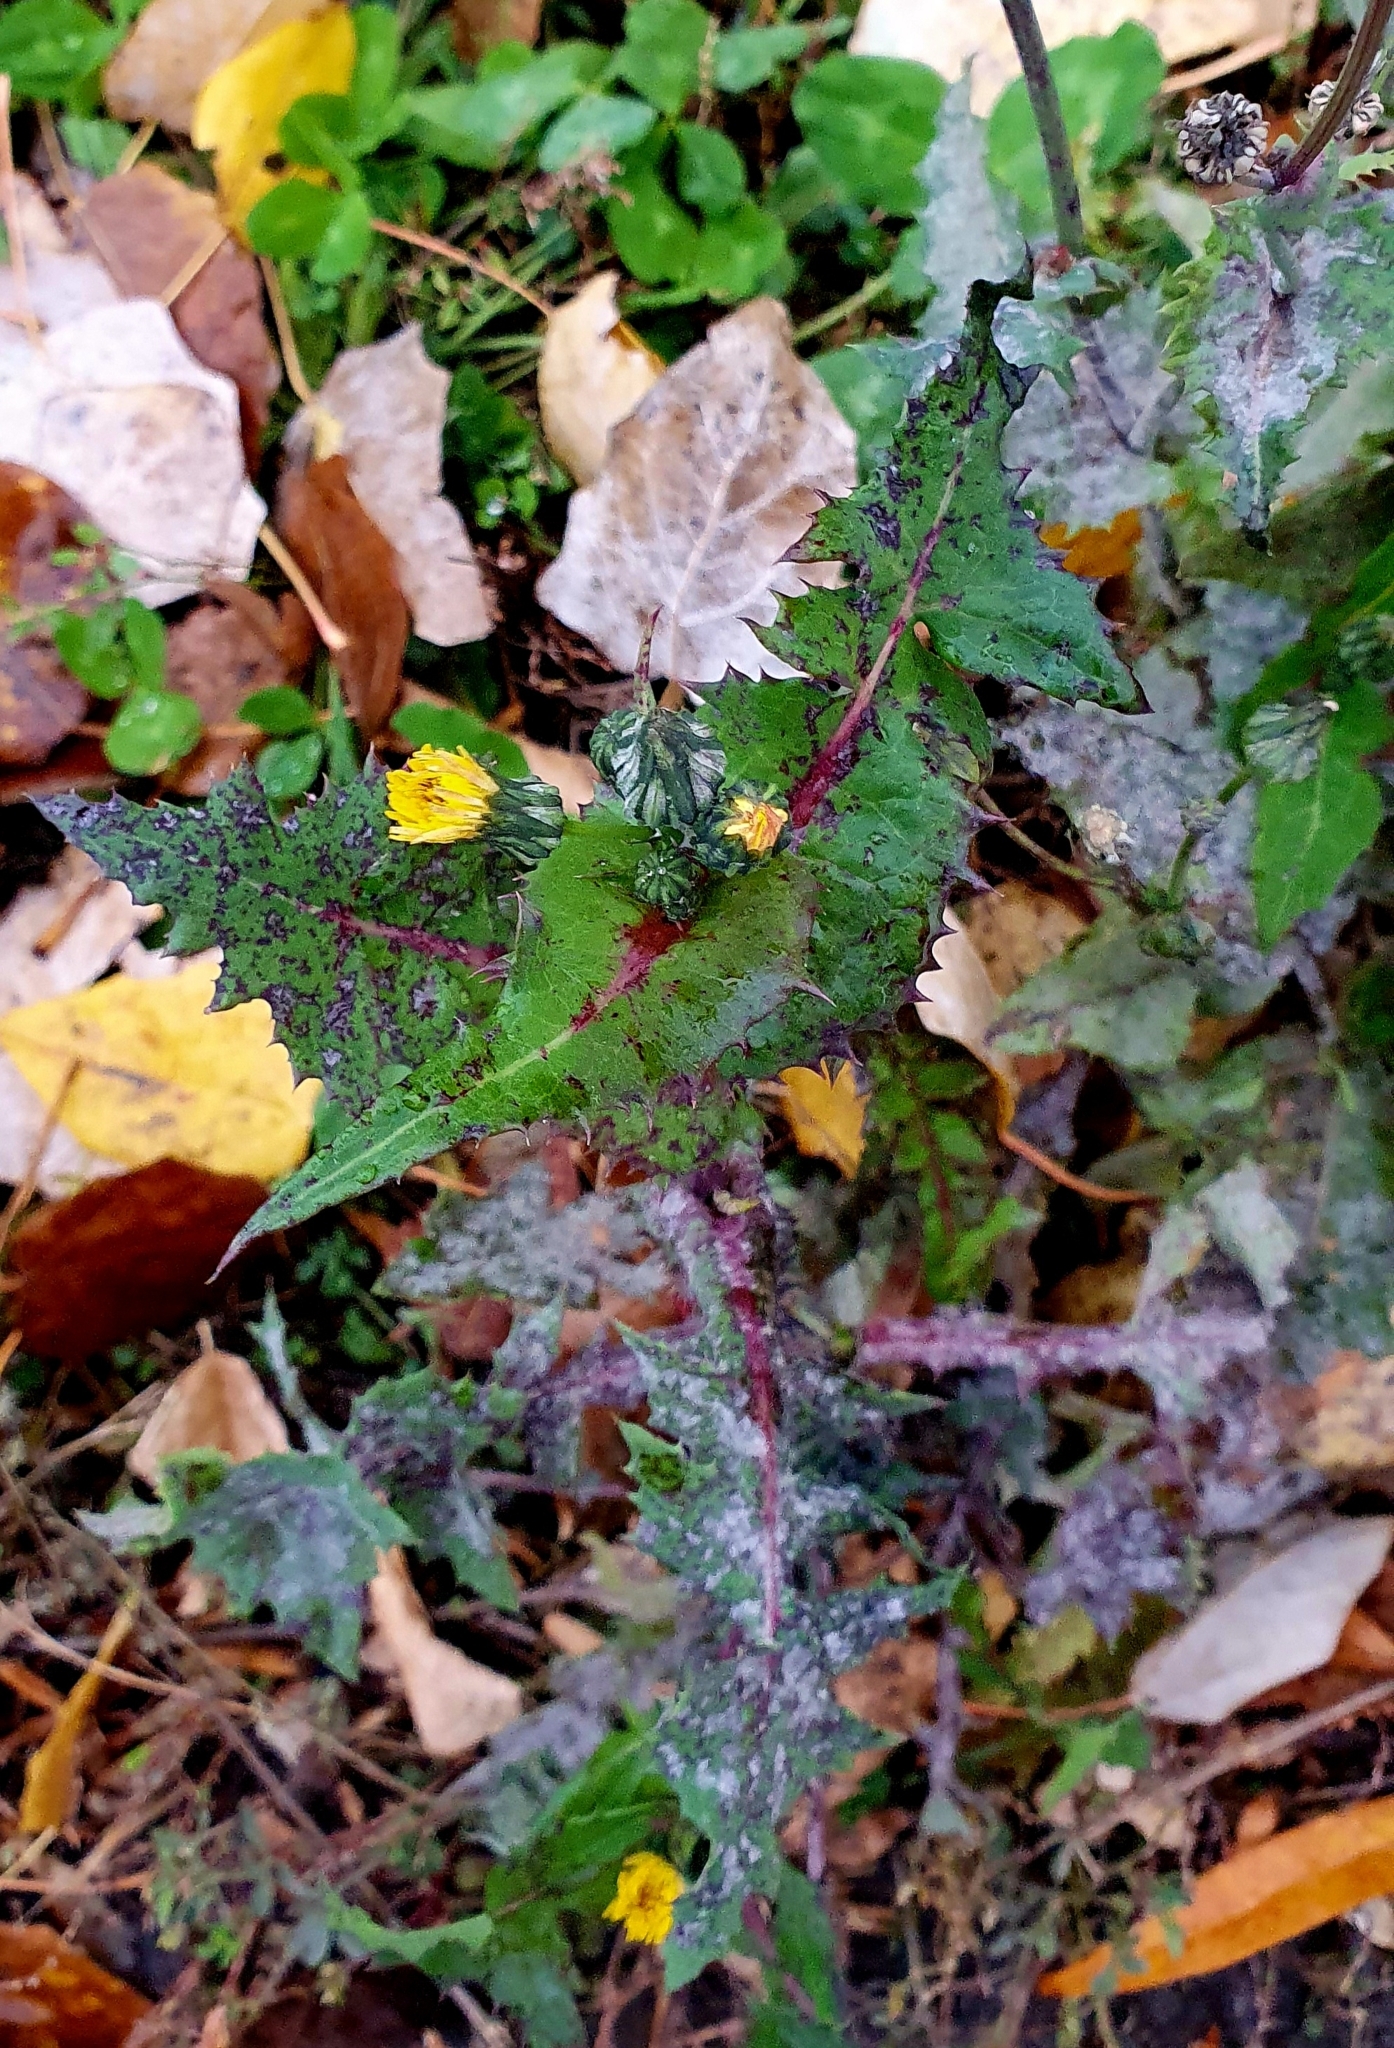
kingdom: Plantae
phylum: Tracheophyta
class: Magnoliopsida
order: Asterales
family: Asteraceae
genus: Sonchus
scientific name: Sonchus oleraceus
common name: Common sowthistle
